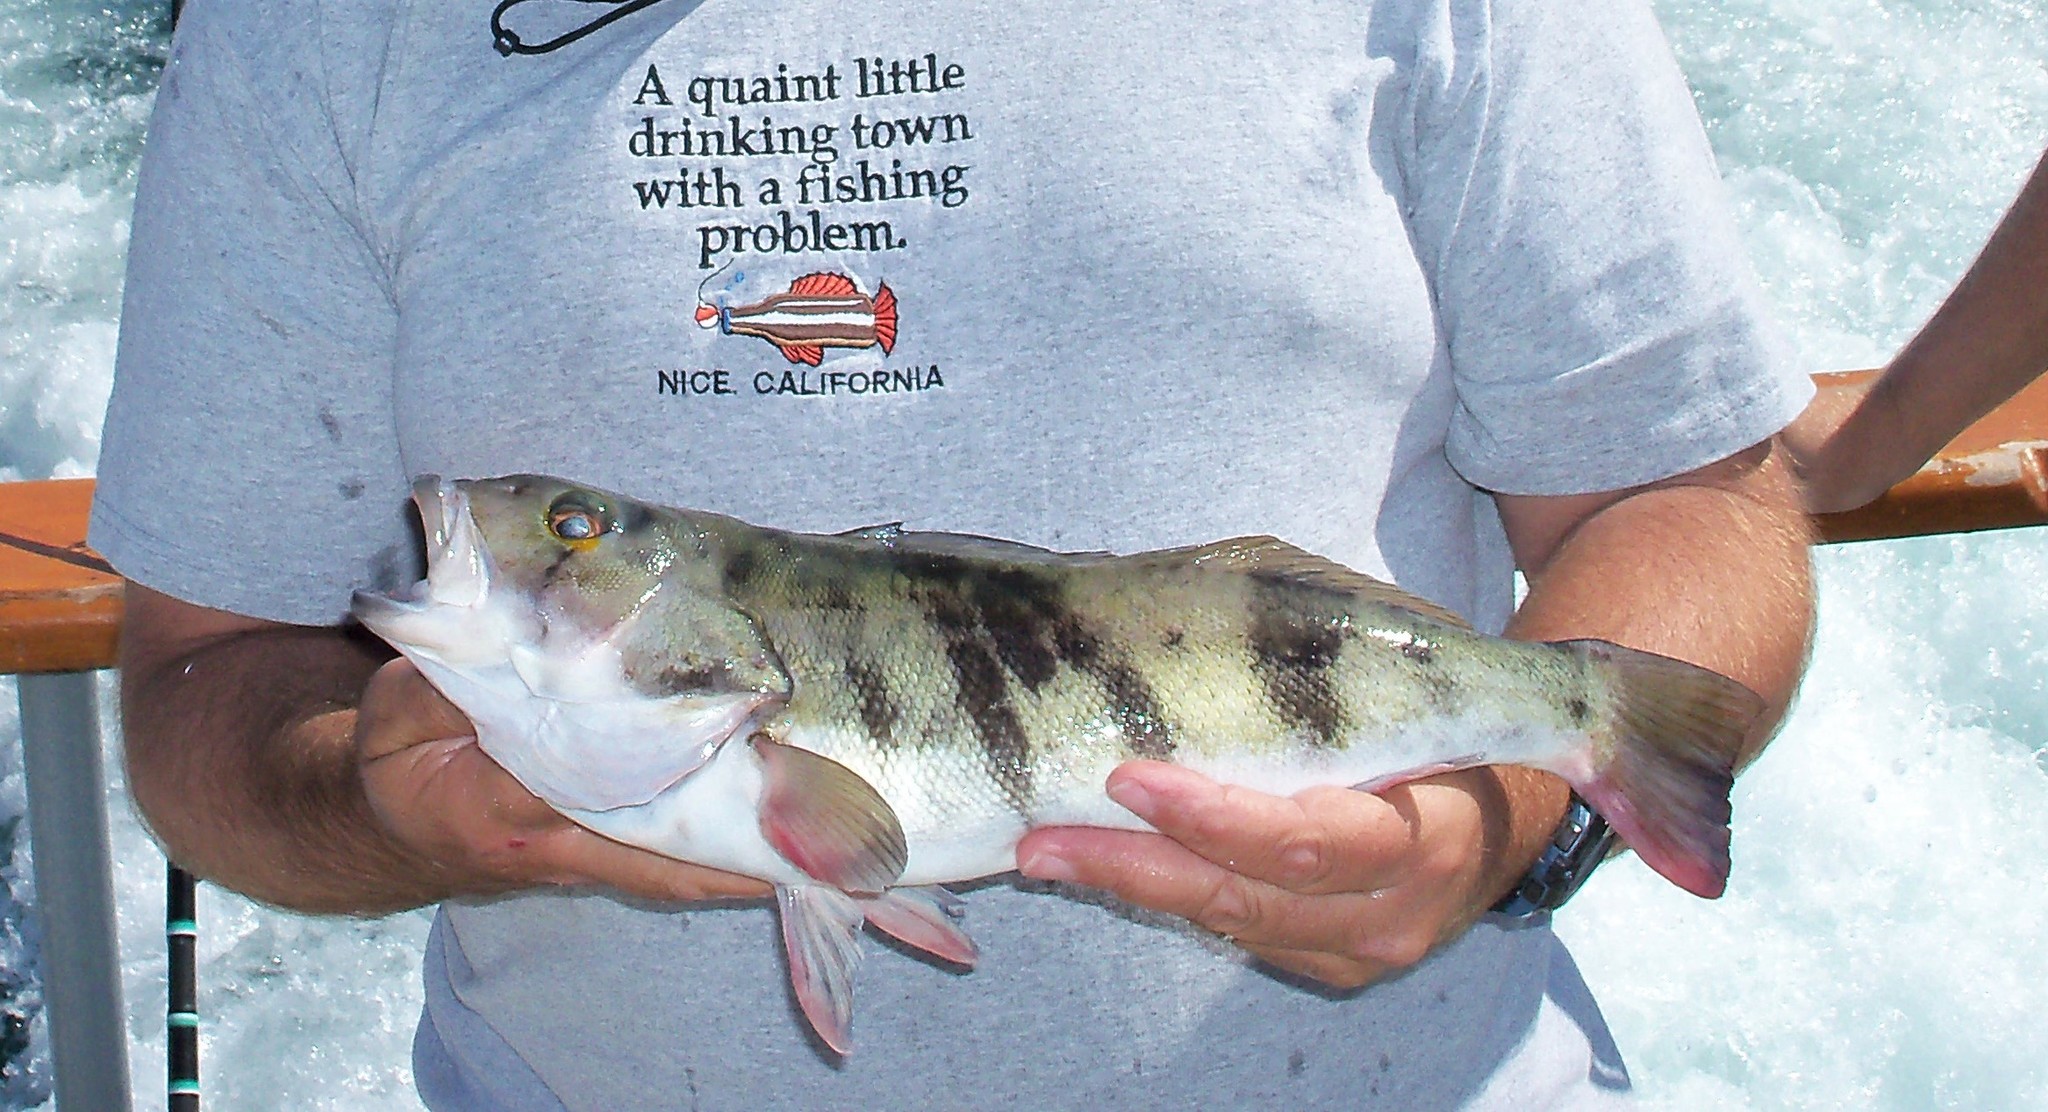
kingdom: Animalia
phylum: Chordata
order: Perciformes
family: Serranidae
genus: Paralabrax
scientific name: Paralabrax nebulifer
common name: Barred sand bass
